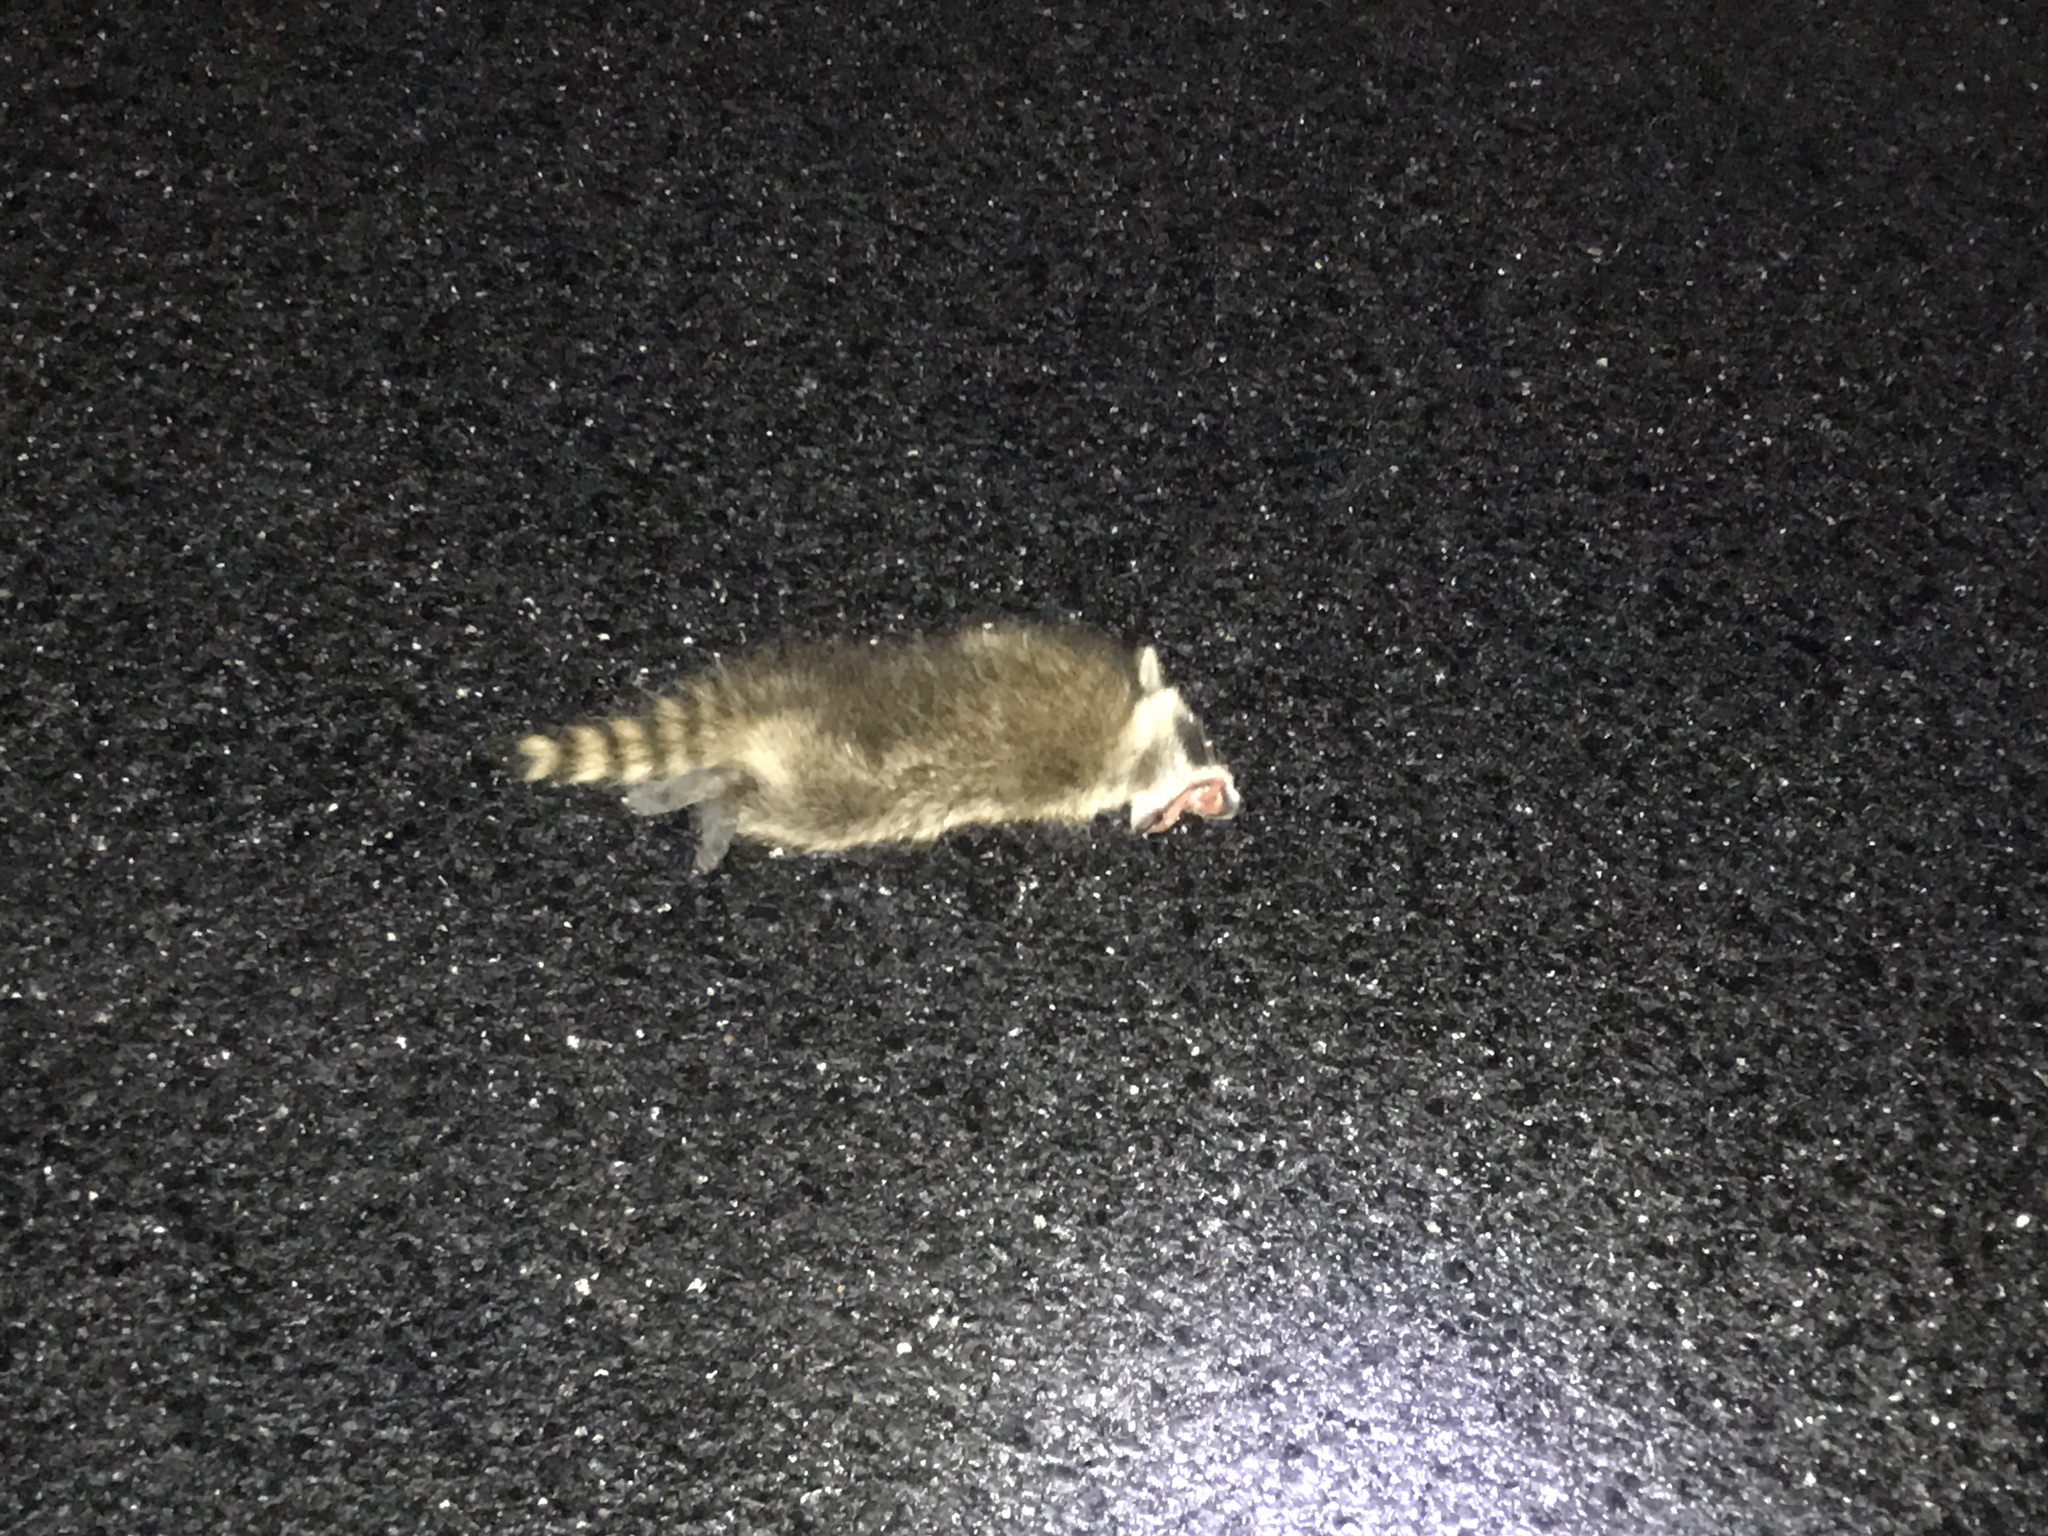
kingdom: Animalia
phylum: Chordata
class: Mammalia
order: Carnivora
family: Procyonidae
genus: Procyon
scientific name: Procyon lotor
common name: Raccoon
